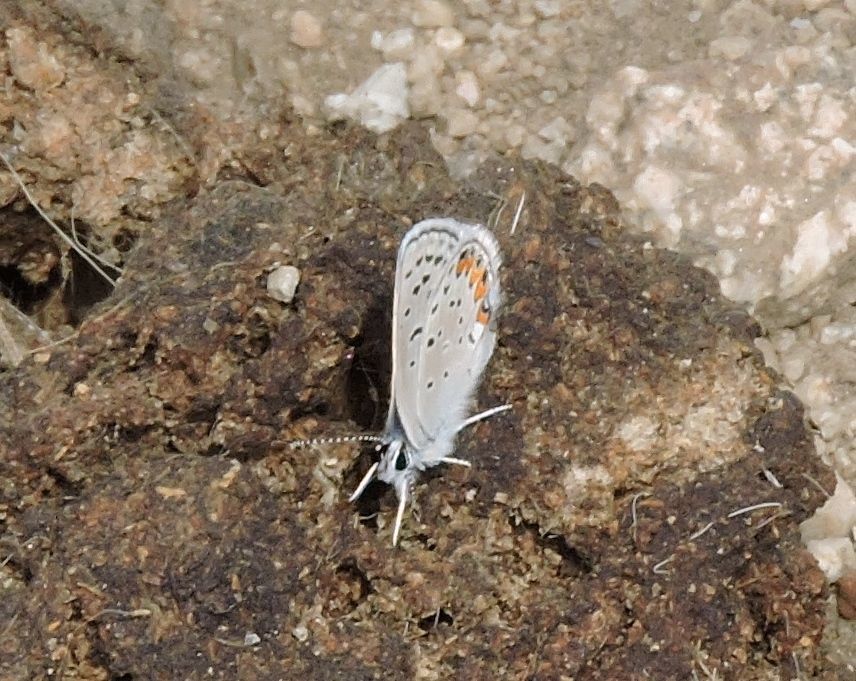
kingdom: Animalia
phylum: Arthropoda
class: Insecta
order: Lepidoptera
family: Lycaenidae
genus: Icaricia
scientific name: Icaricia acmon
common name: Acmon blue
